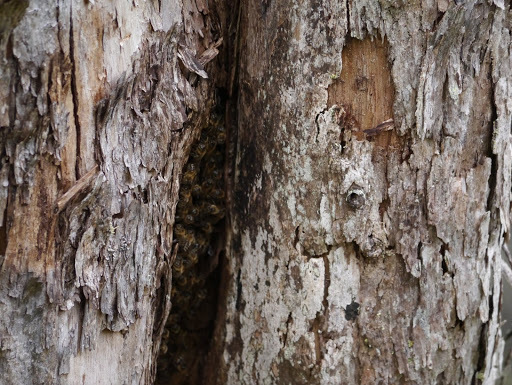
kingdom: Animalia
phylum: Arthropoda
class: Insecta
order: Hymenoptera
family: Apidae
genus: Apis
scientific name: Apis mellifera
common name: Honey bee
